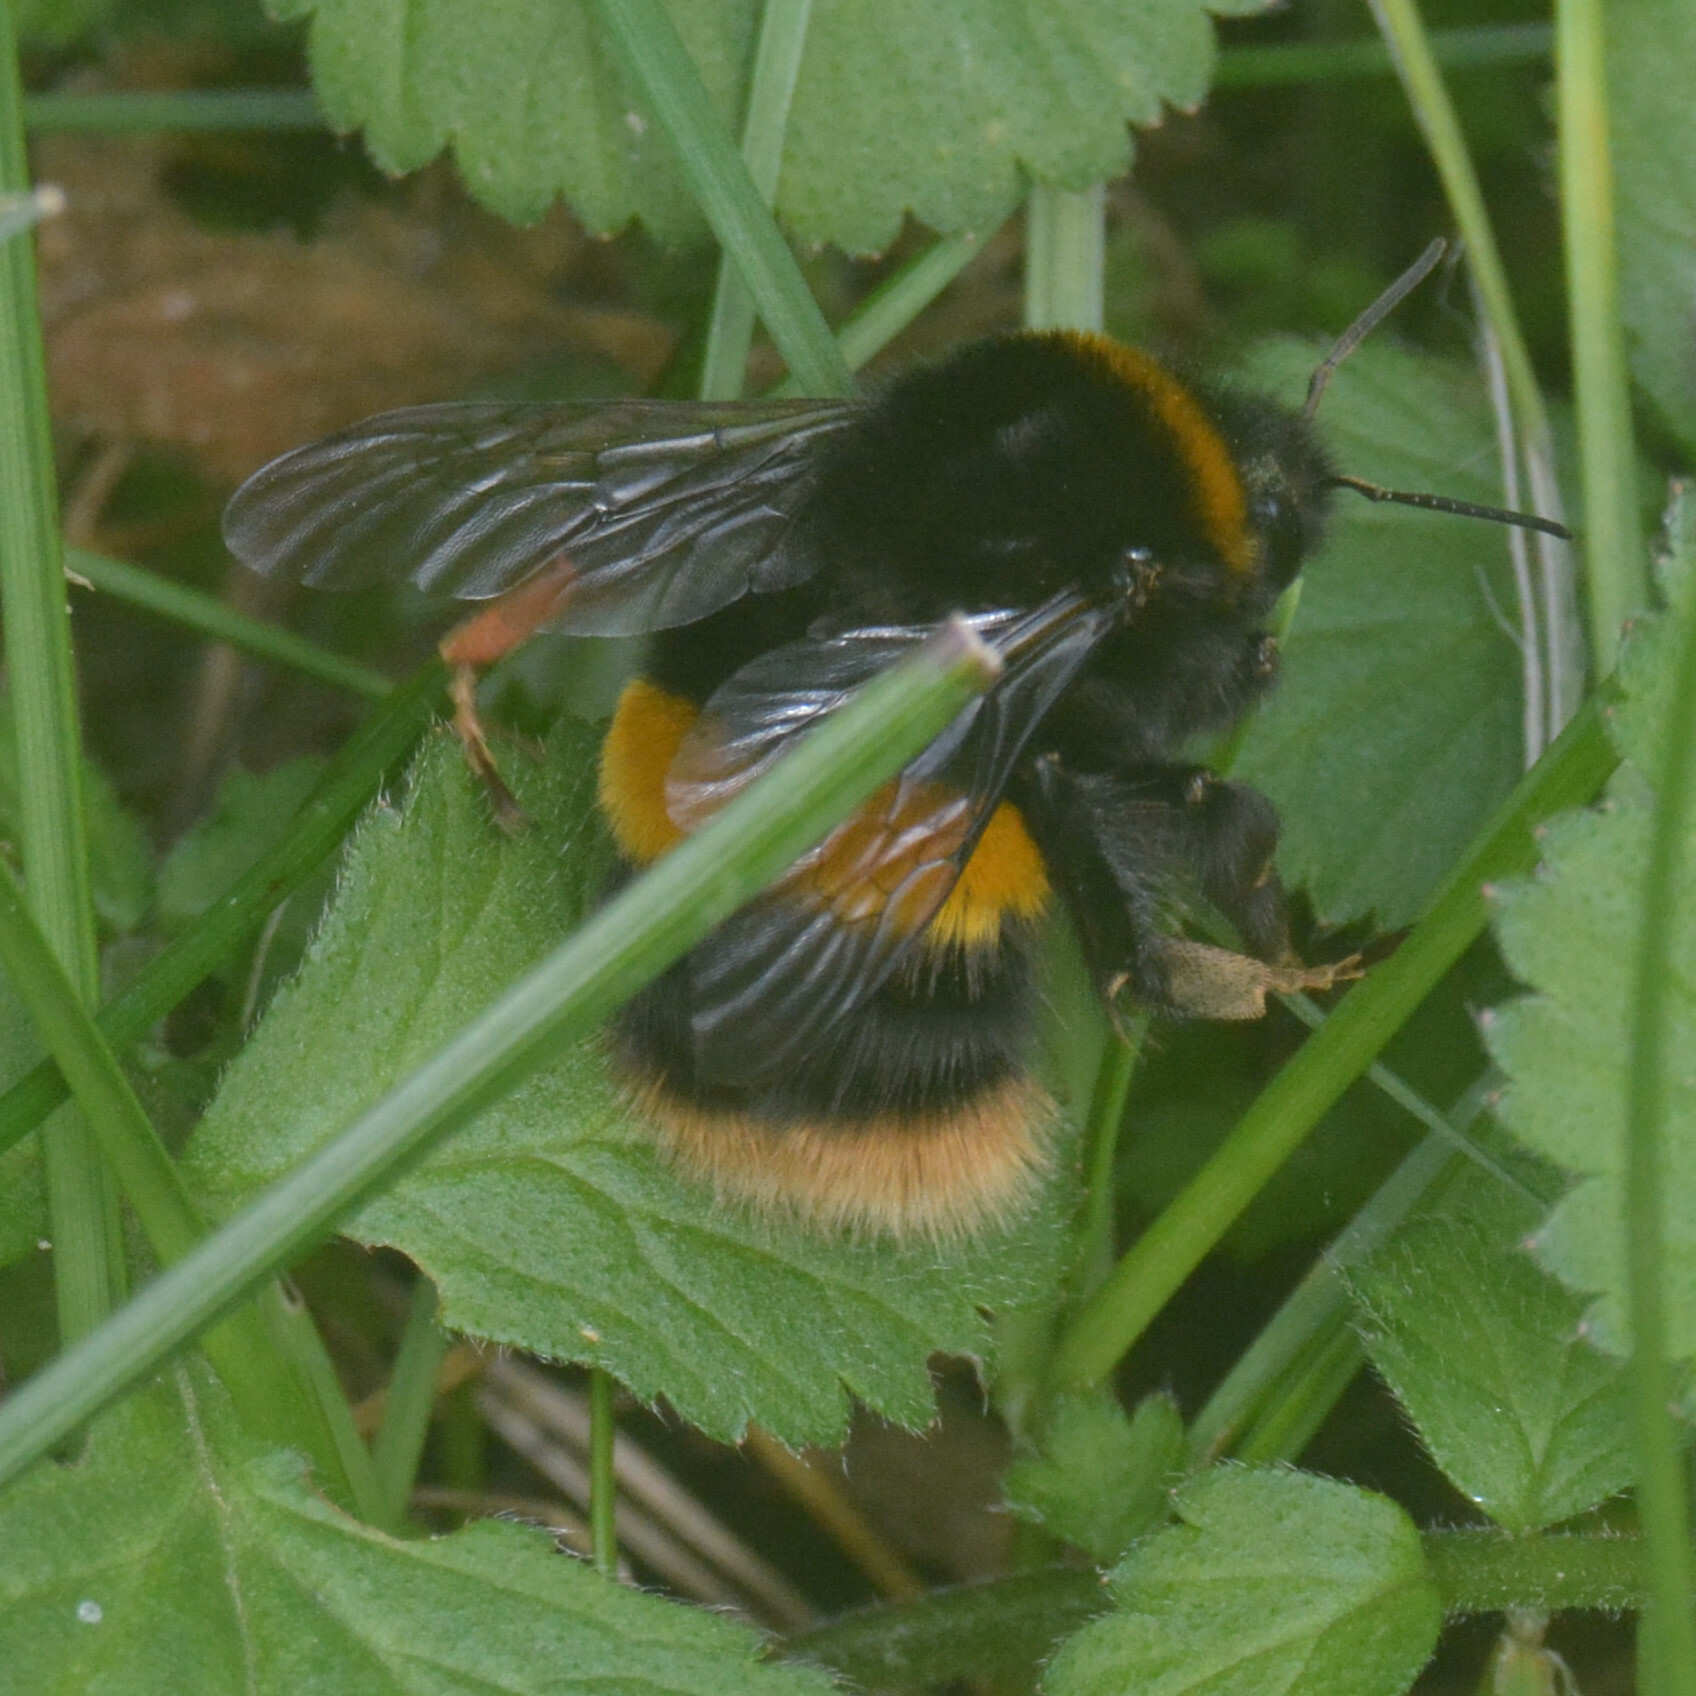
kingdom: Animalia
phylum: Arthropoda
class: Insecta
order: Hymenoptera
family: Apidae
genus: Bombus
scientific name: Bombus terrestris
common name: Buff-tailed bumblebee
